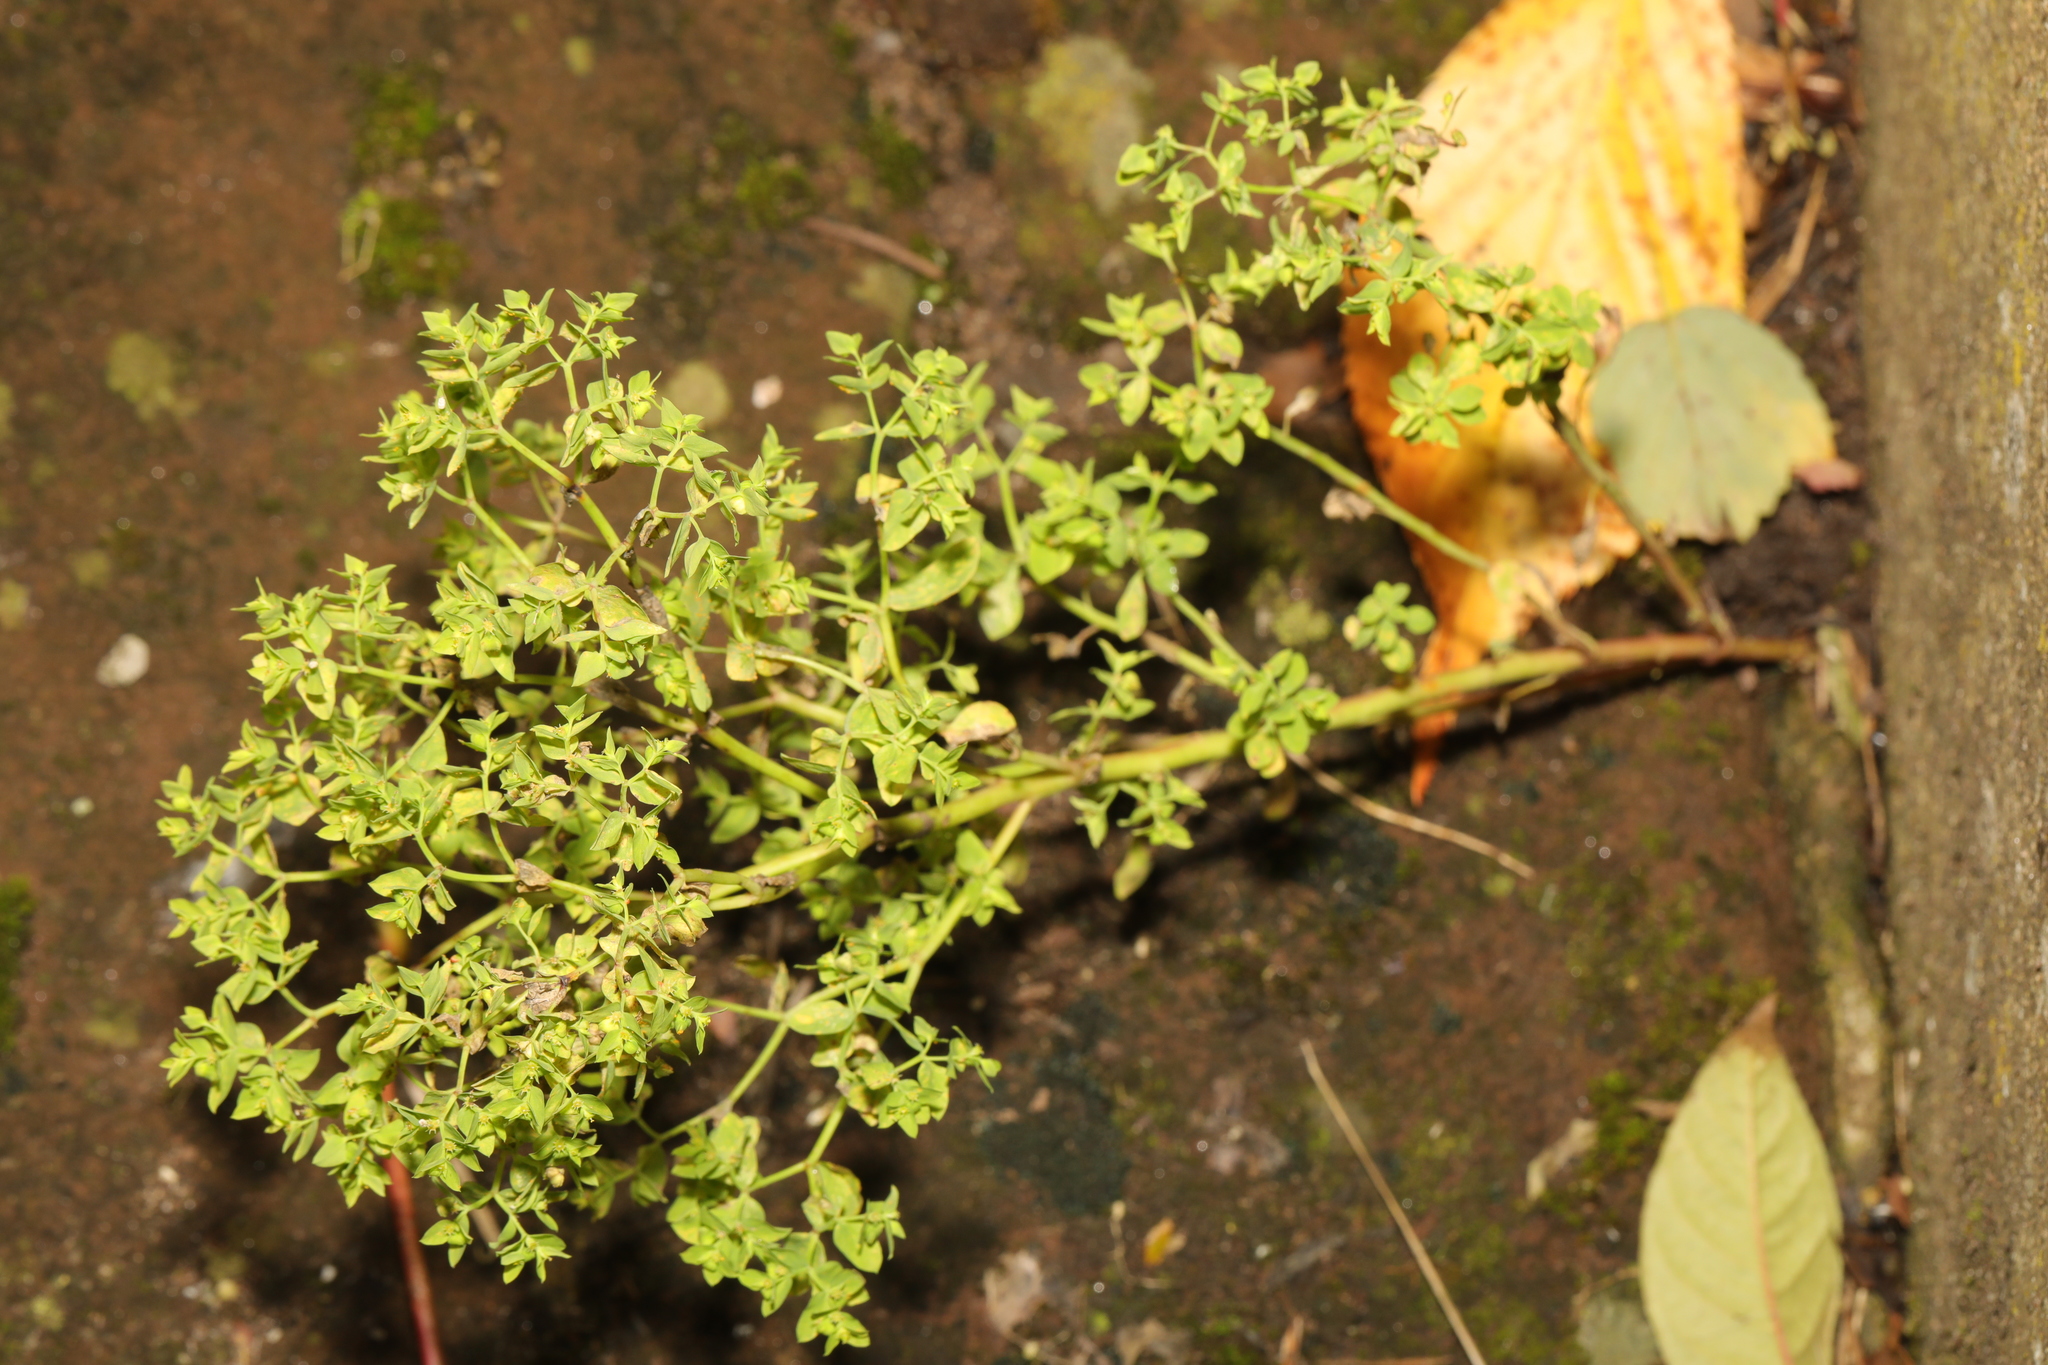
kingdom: Plantae
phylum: Tracheophyta
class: Magnoliopsida
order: Malpighiales
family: Euphorbiaceae
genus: Euphorbia
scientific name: Euphorbia peplus
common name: Petty spurge
